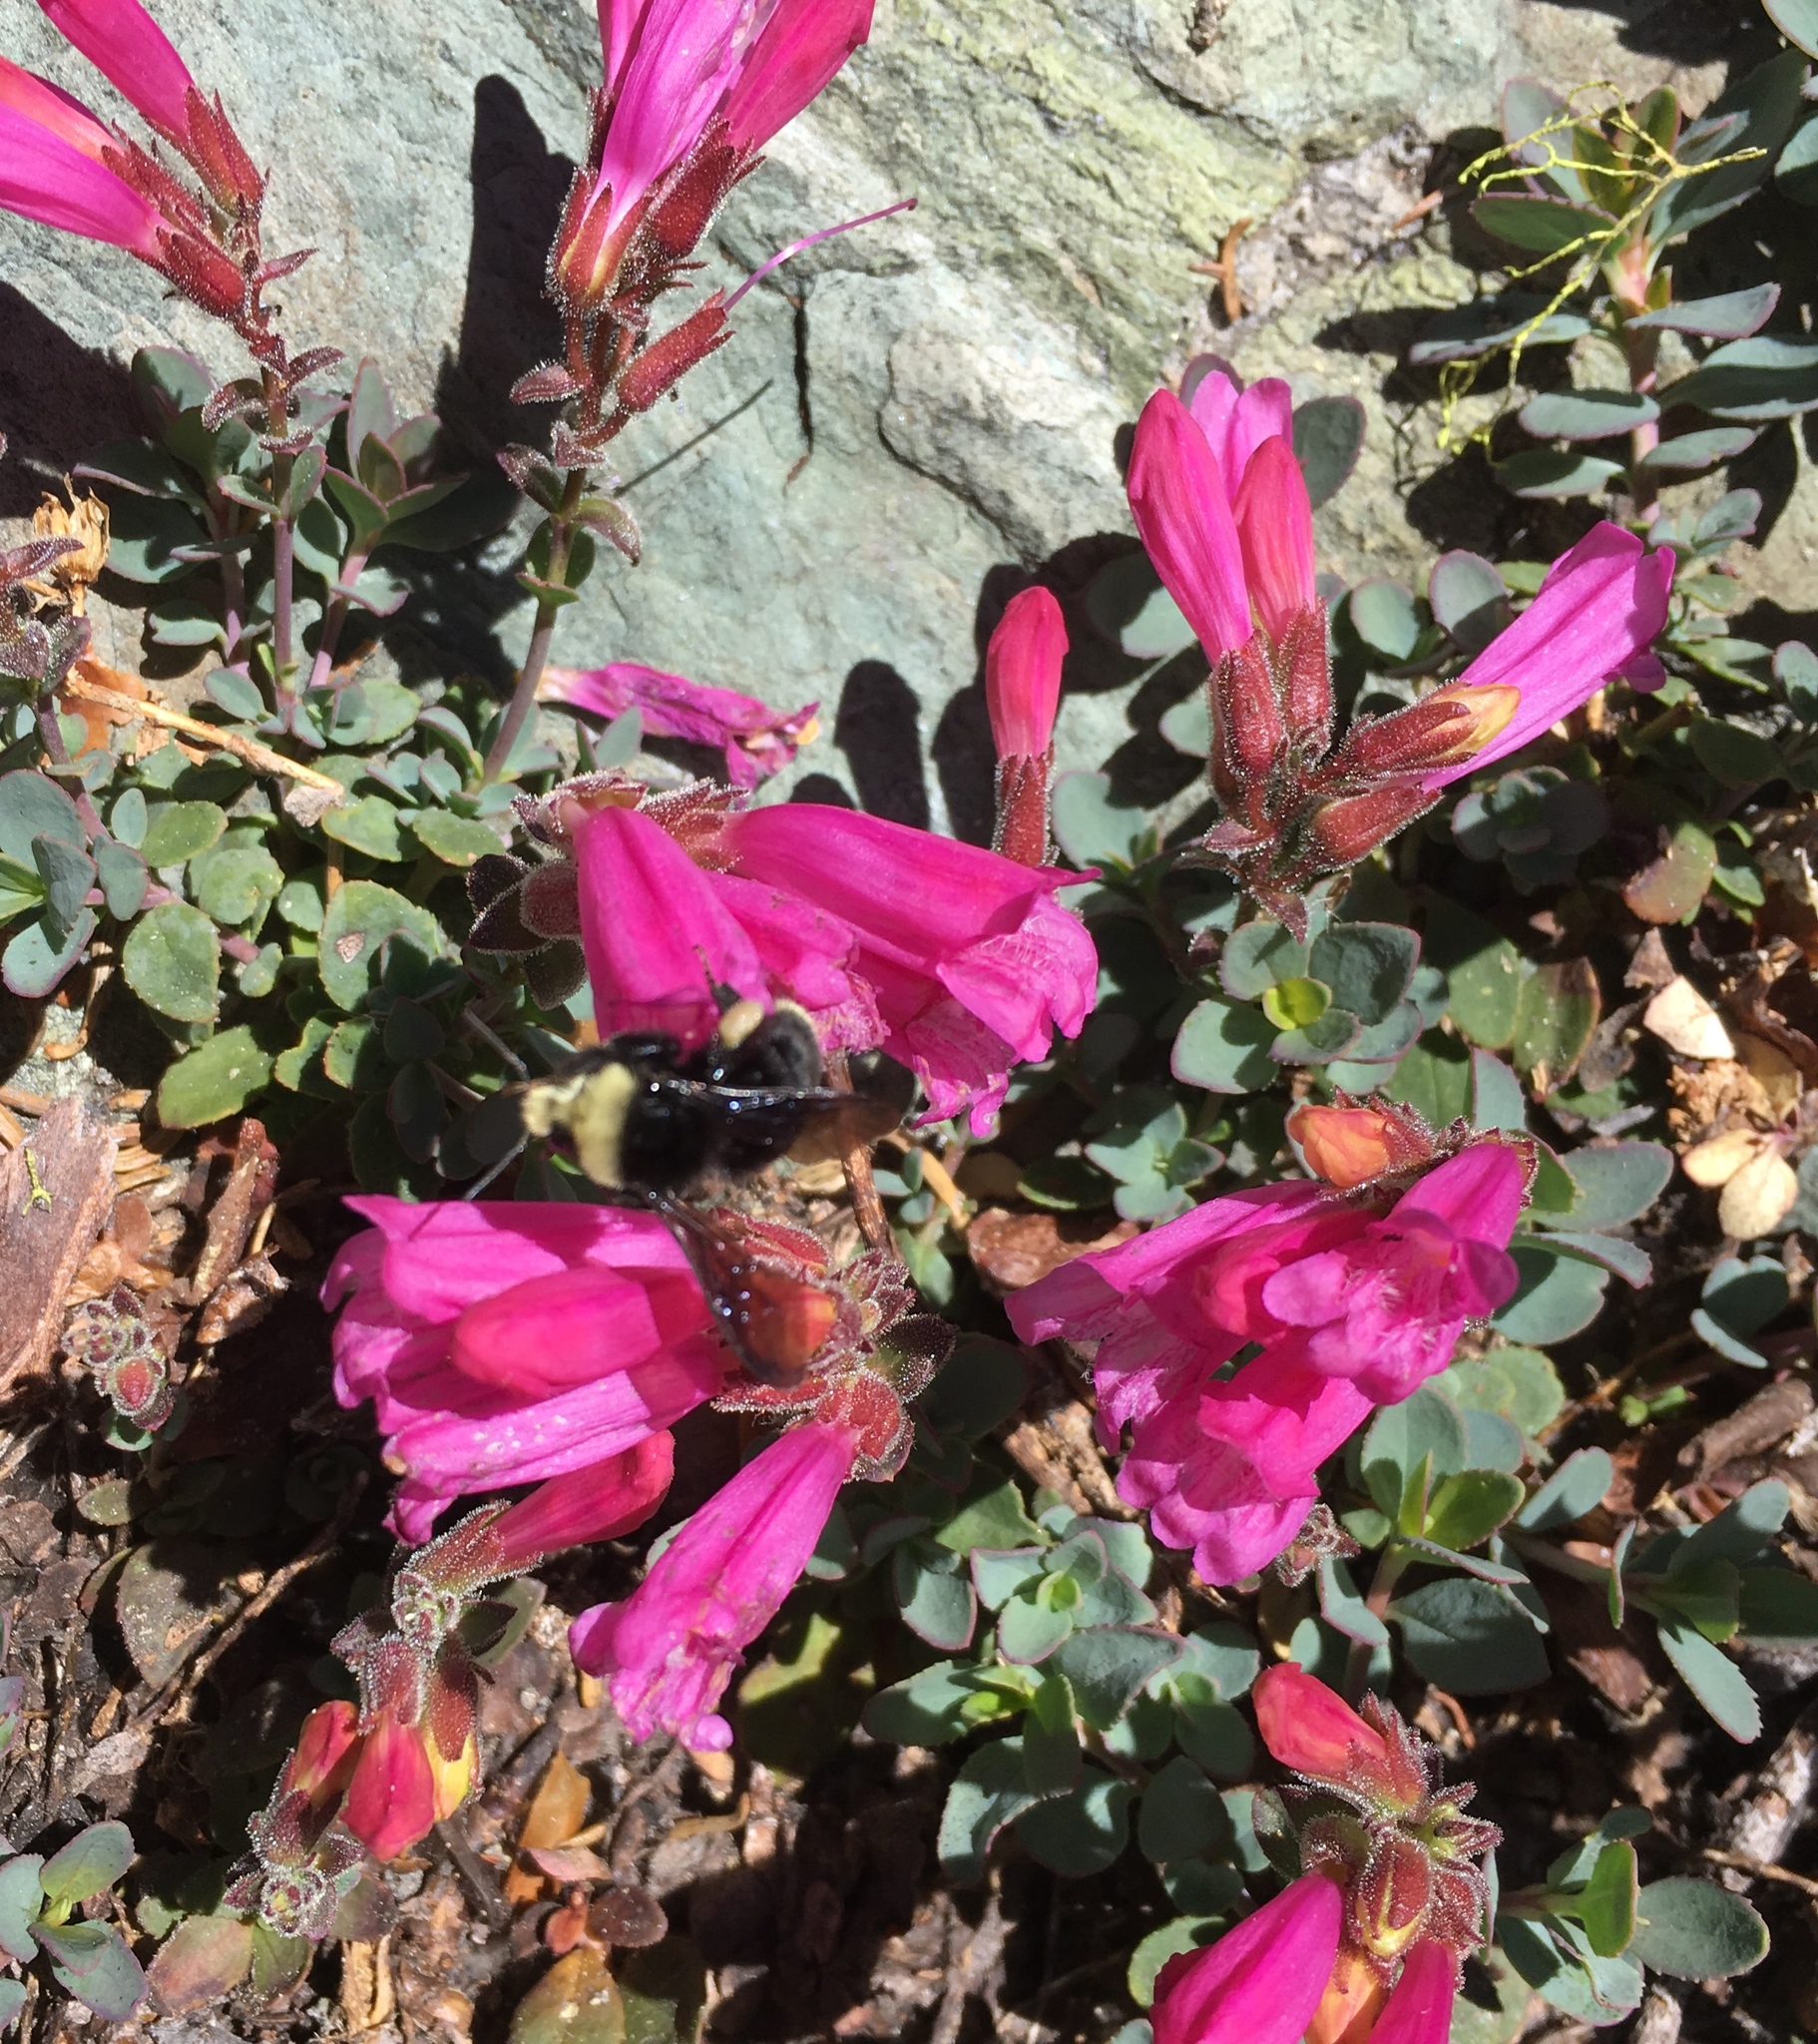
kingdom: Plantae
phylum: Tracheophyta
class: Magnoliopsida
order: Lamiales
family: Plantaginaceae
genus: Penstemon
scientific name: Penstemon newberryi
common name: Mountain-pride
